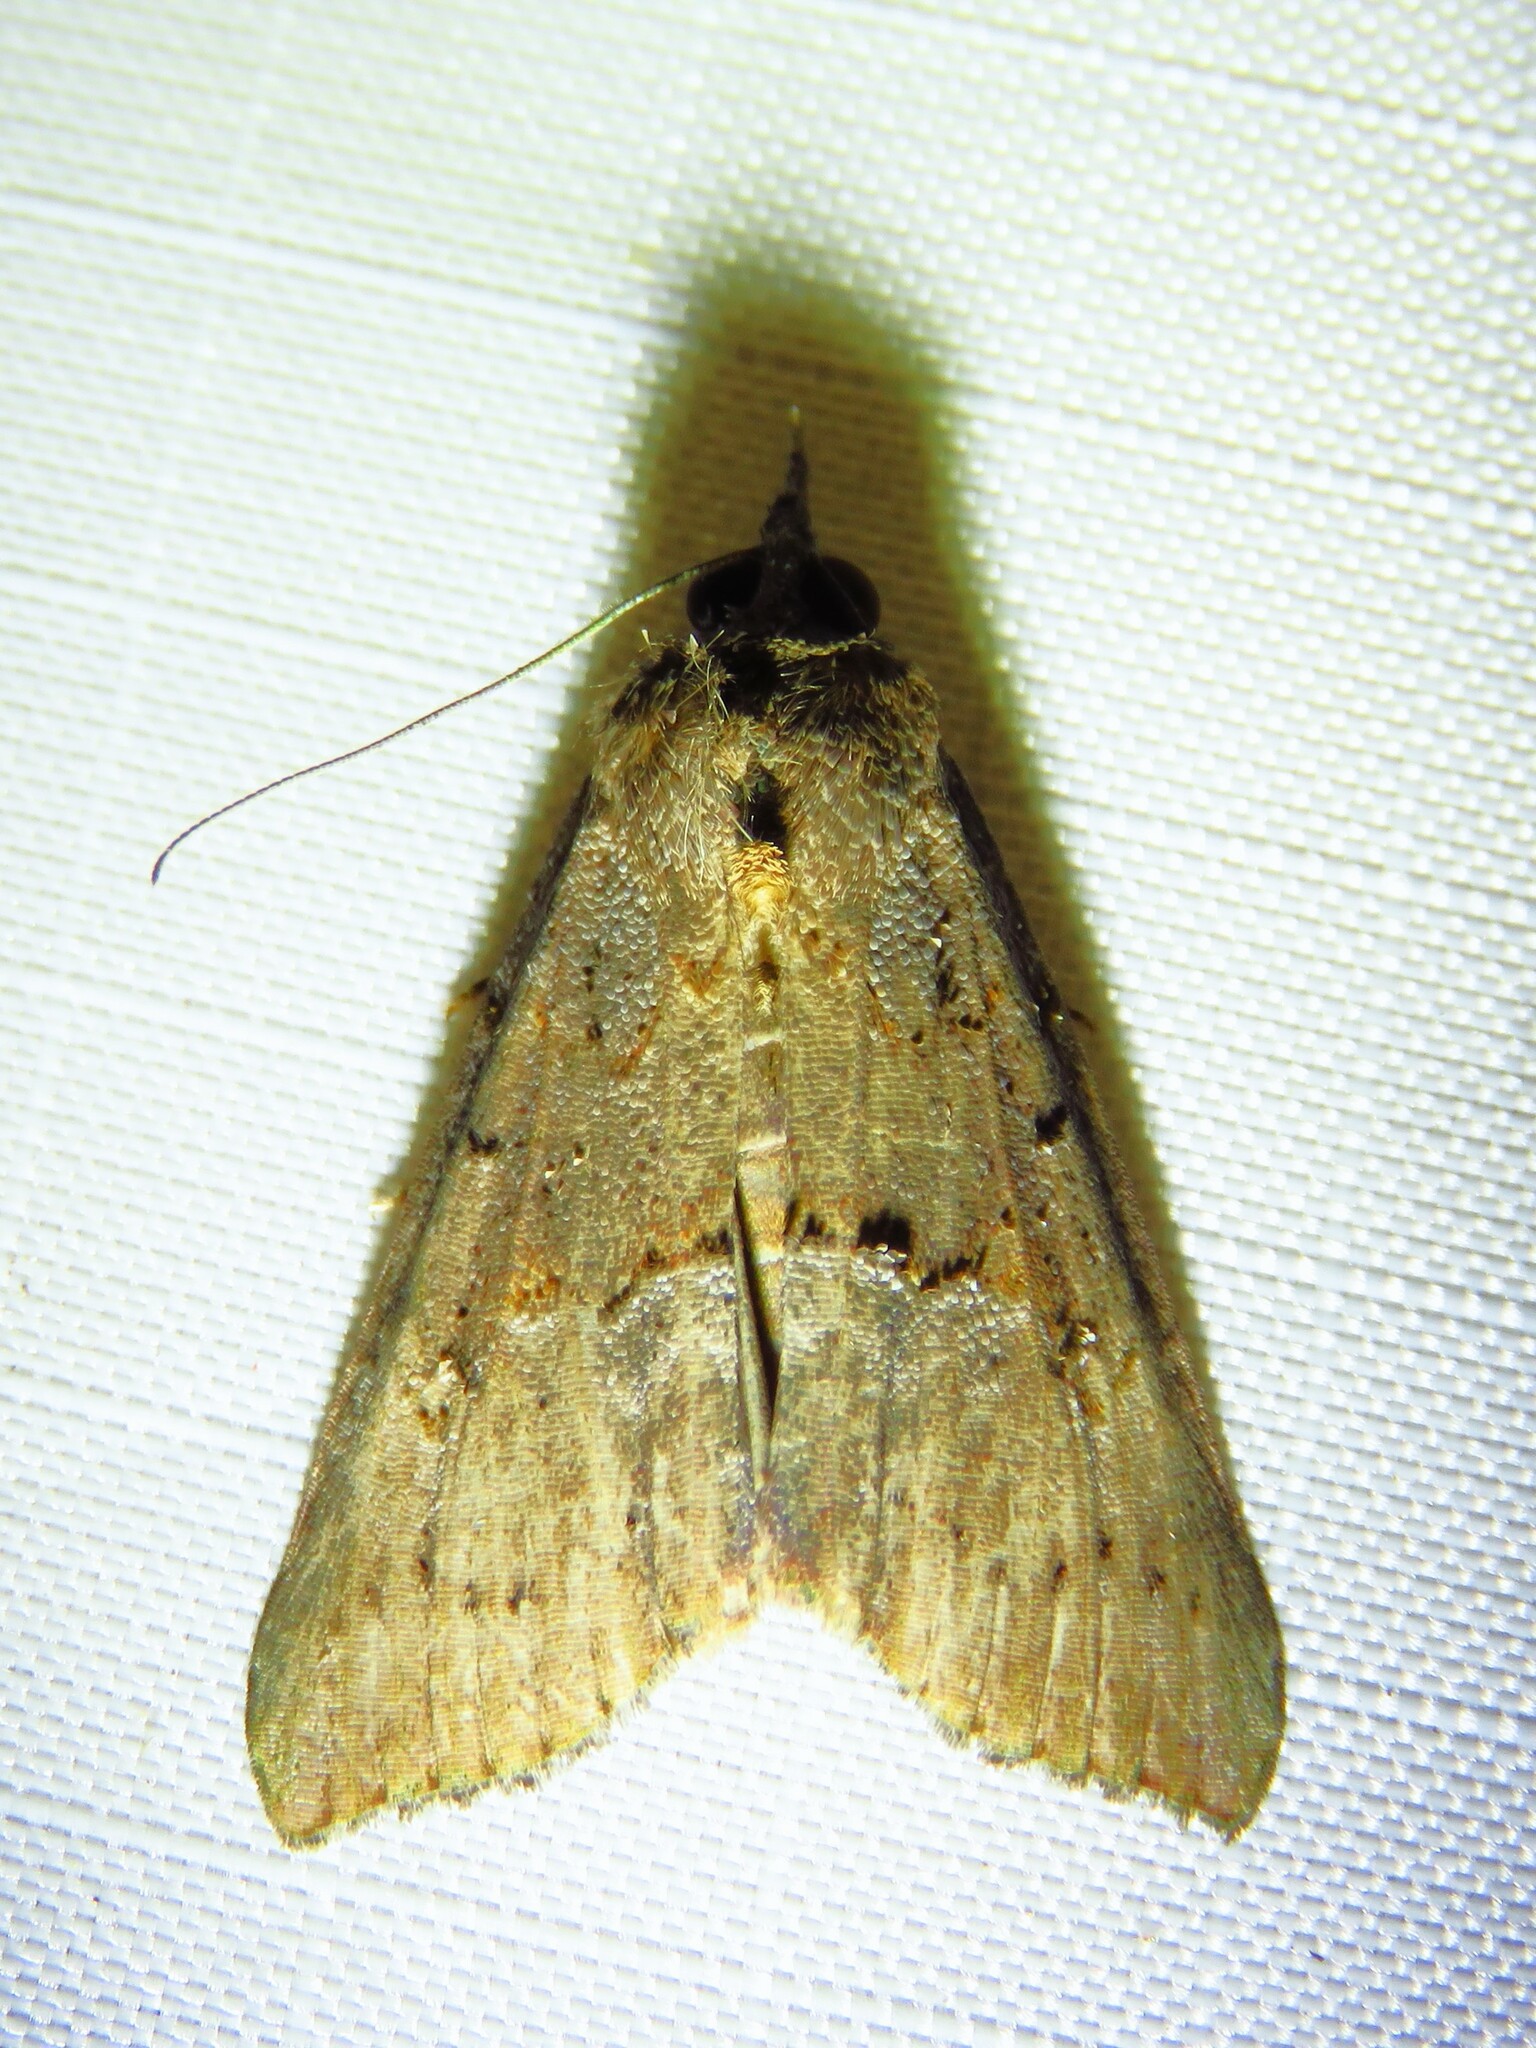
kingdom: Animalia
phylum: Arthropoda
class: Insecta
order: Lepidoptera
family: Erebidae
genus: Hypena
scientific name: Hypena scabra
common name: Green cloverworm
